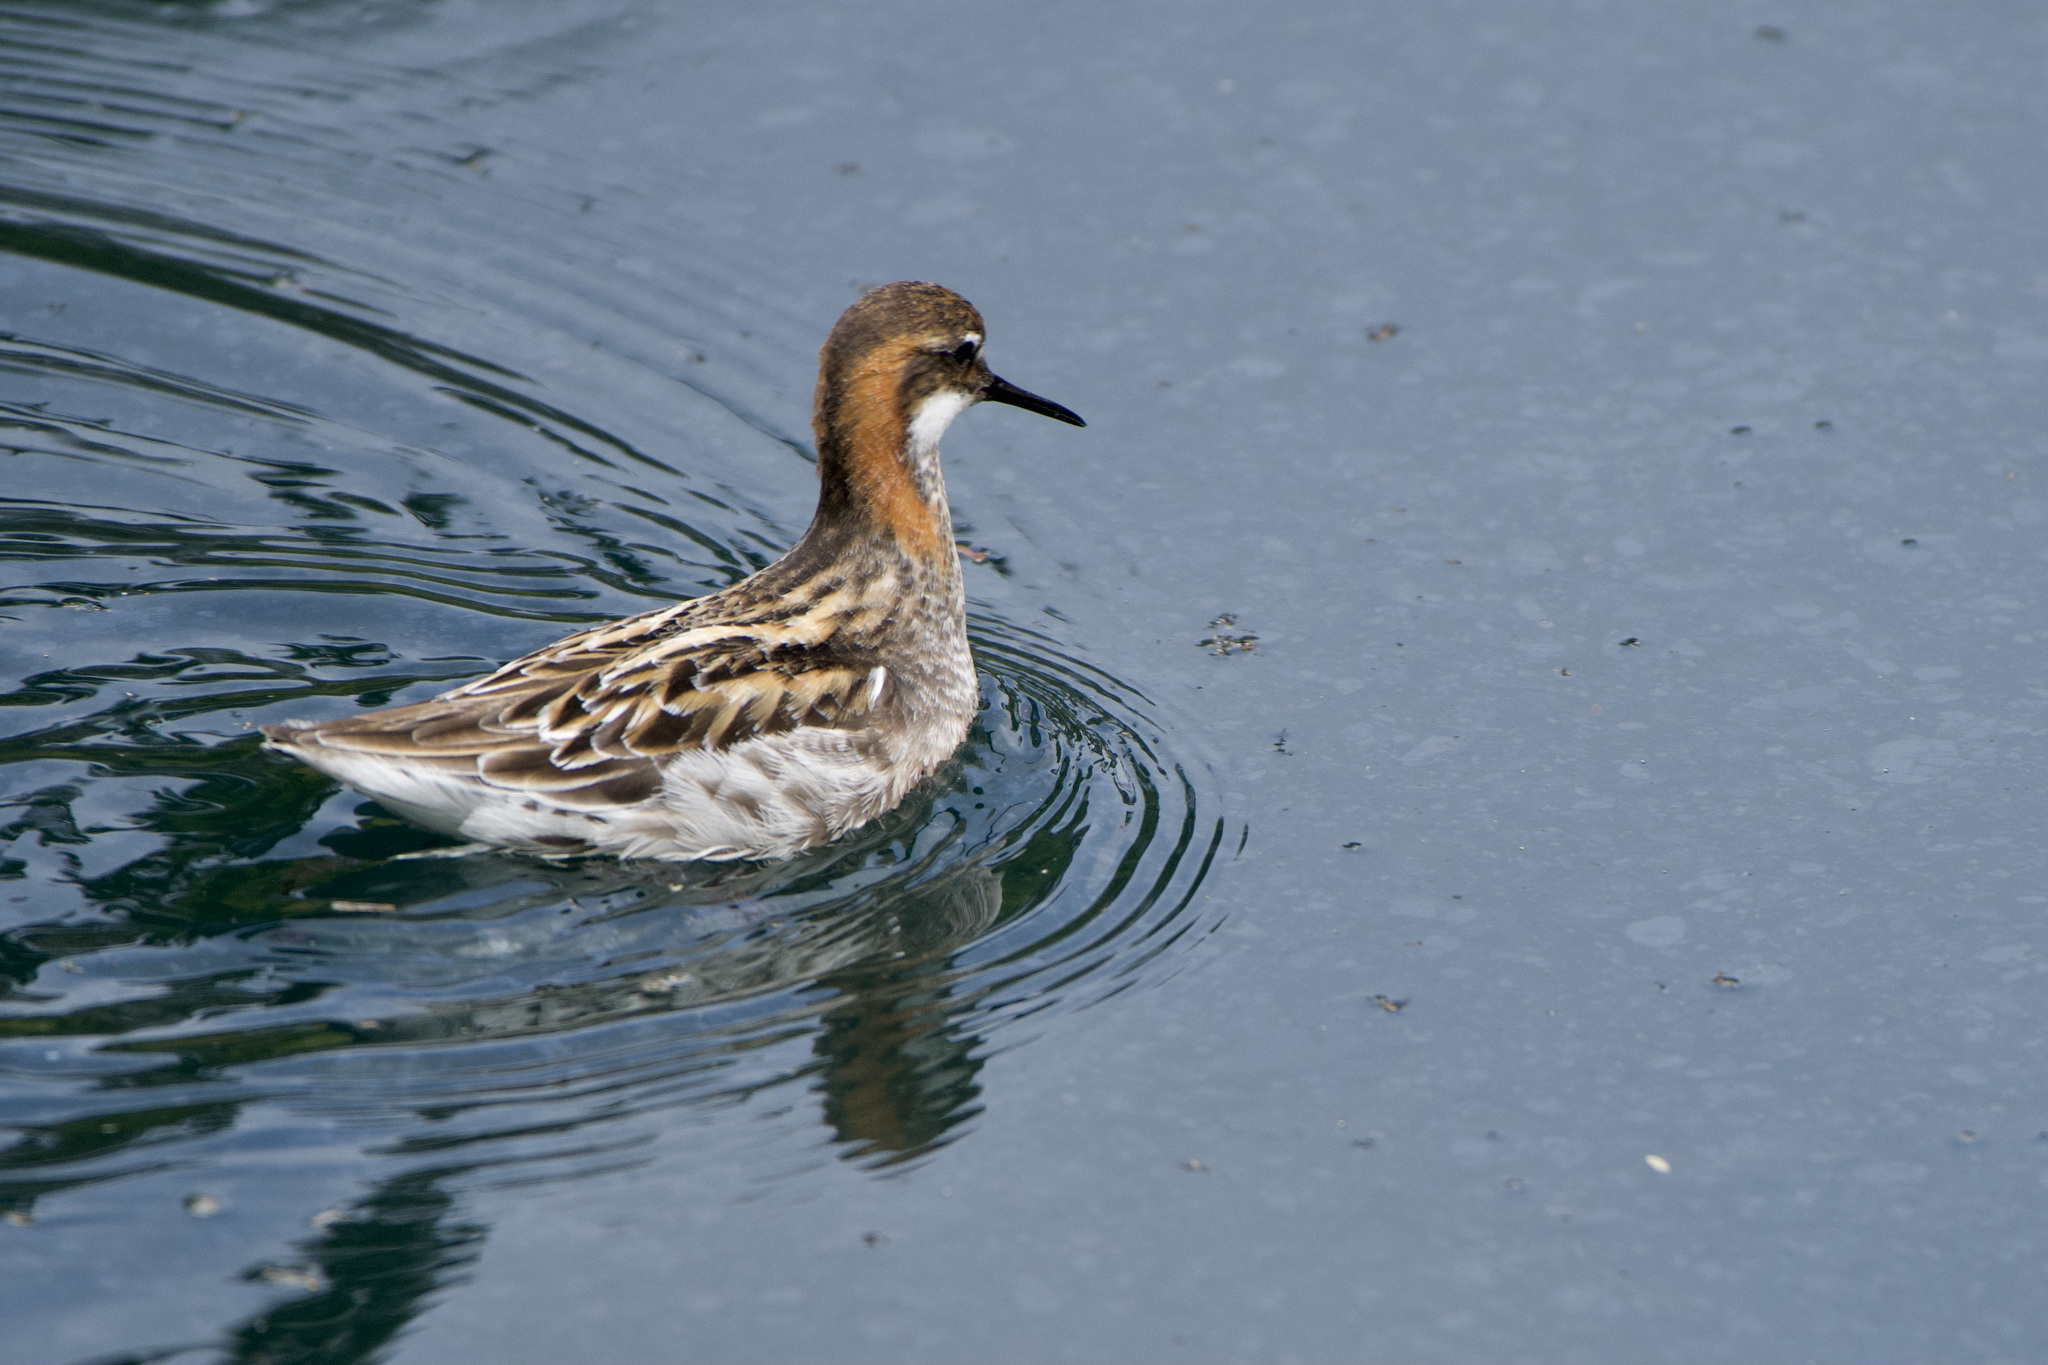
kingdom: Animalia
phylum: Chordata
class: Aves
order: Charadriiformes
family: Scolopacidae
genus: Phalaropus
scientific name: Phalaropus lobatus
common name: Red-necked phalarope
